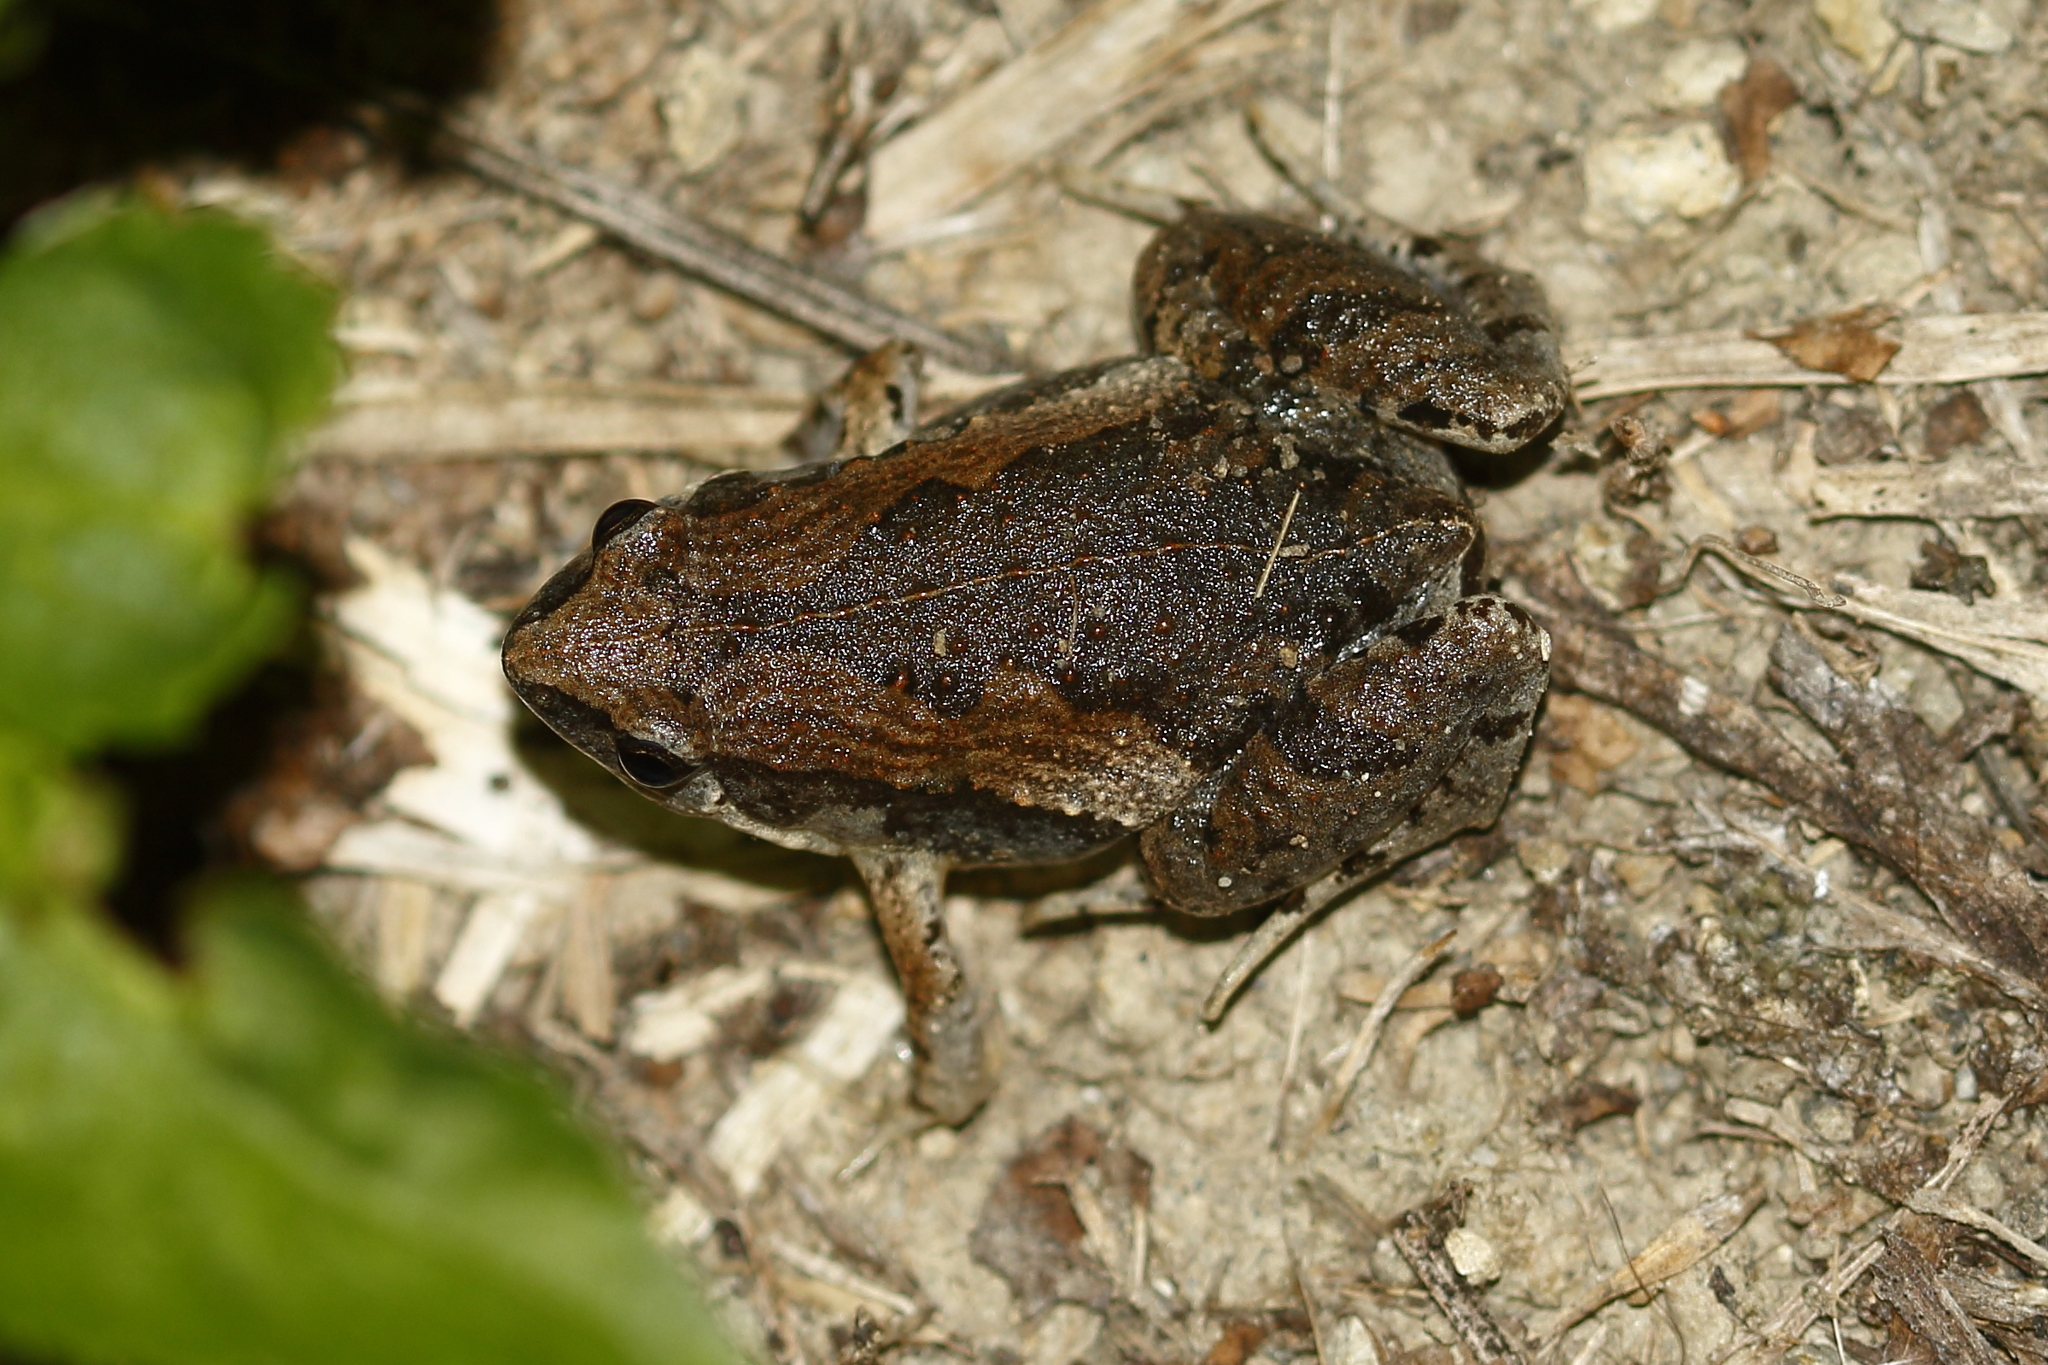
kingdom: Animalia
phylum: Chordata
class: Amphibia
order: Anura
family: Microhylidae
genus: Microhyla
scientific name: Microhyla fissipes
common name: Ornate narrow-mouthed frog
